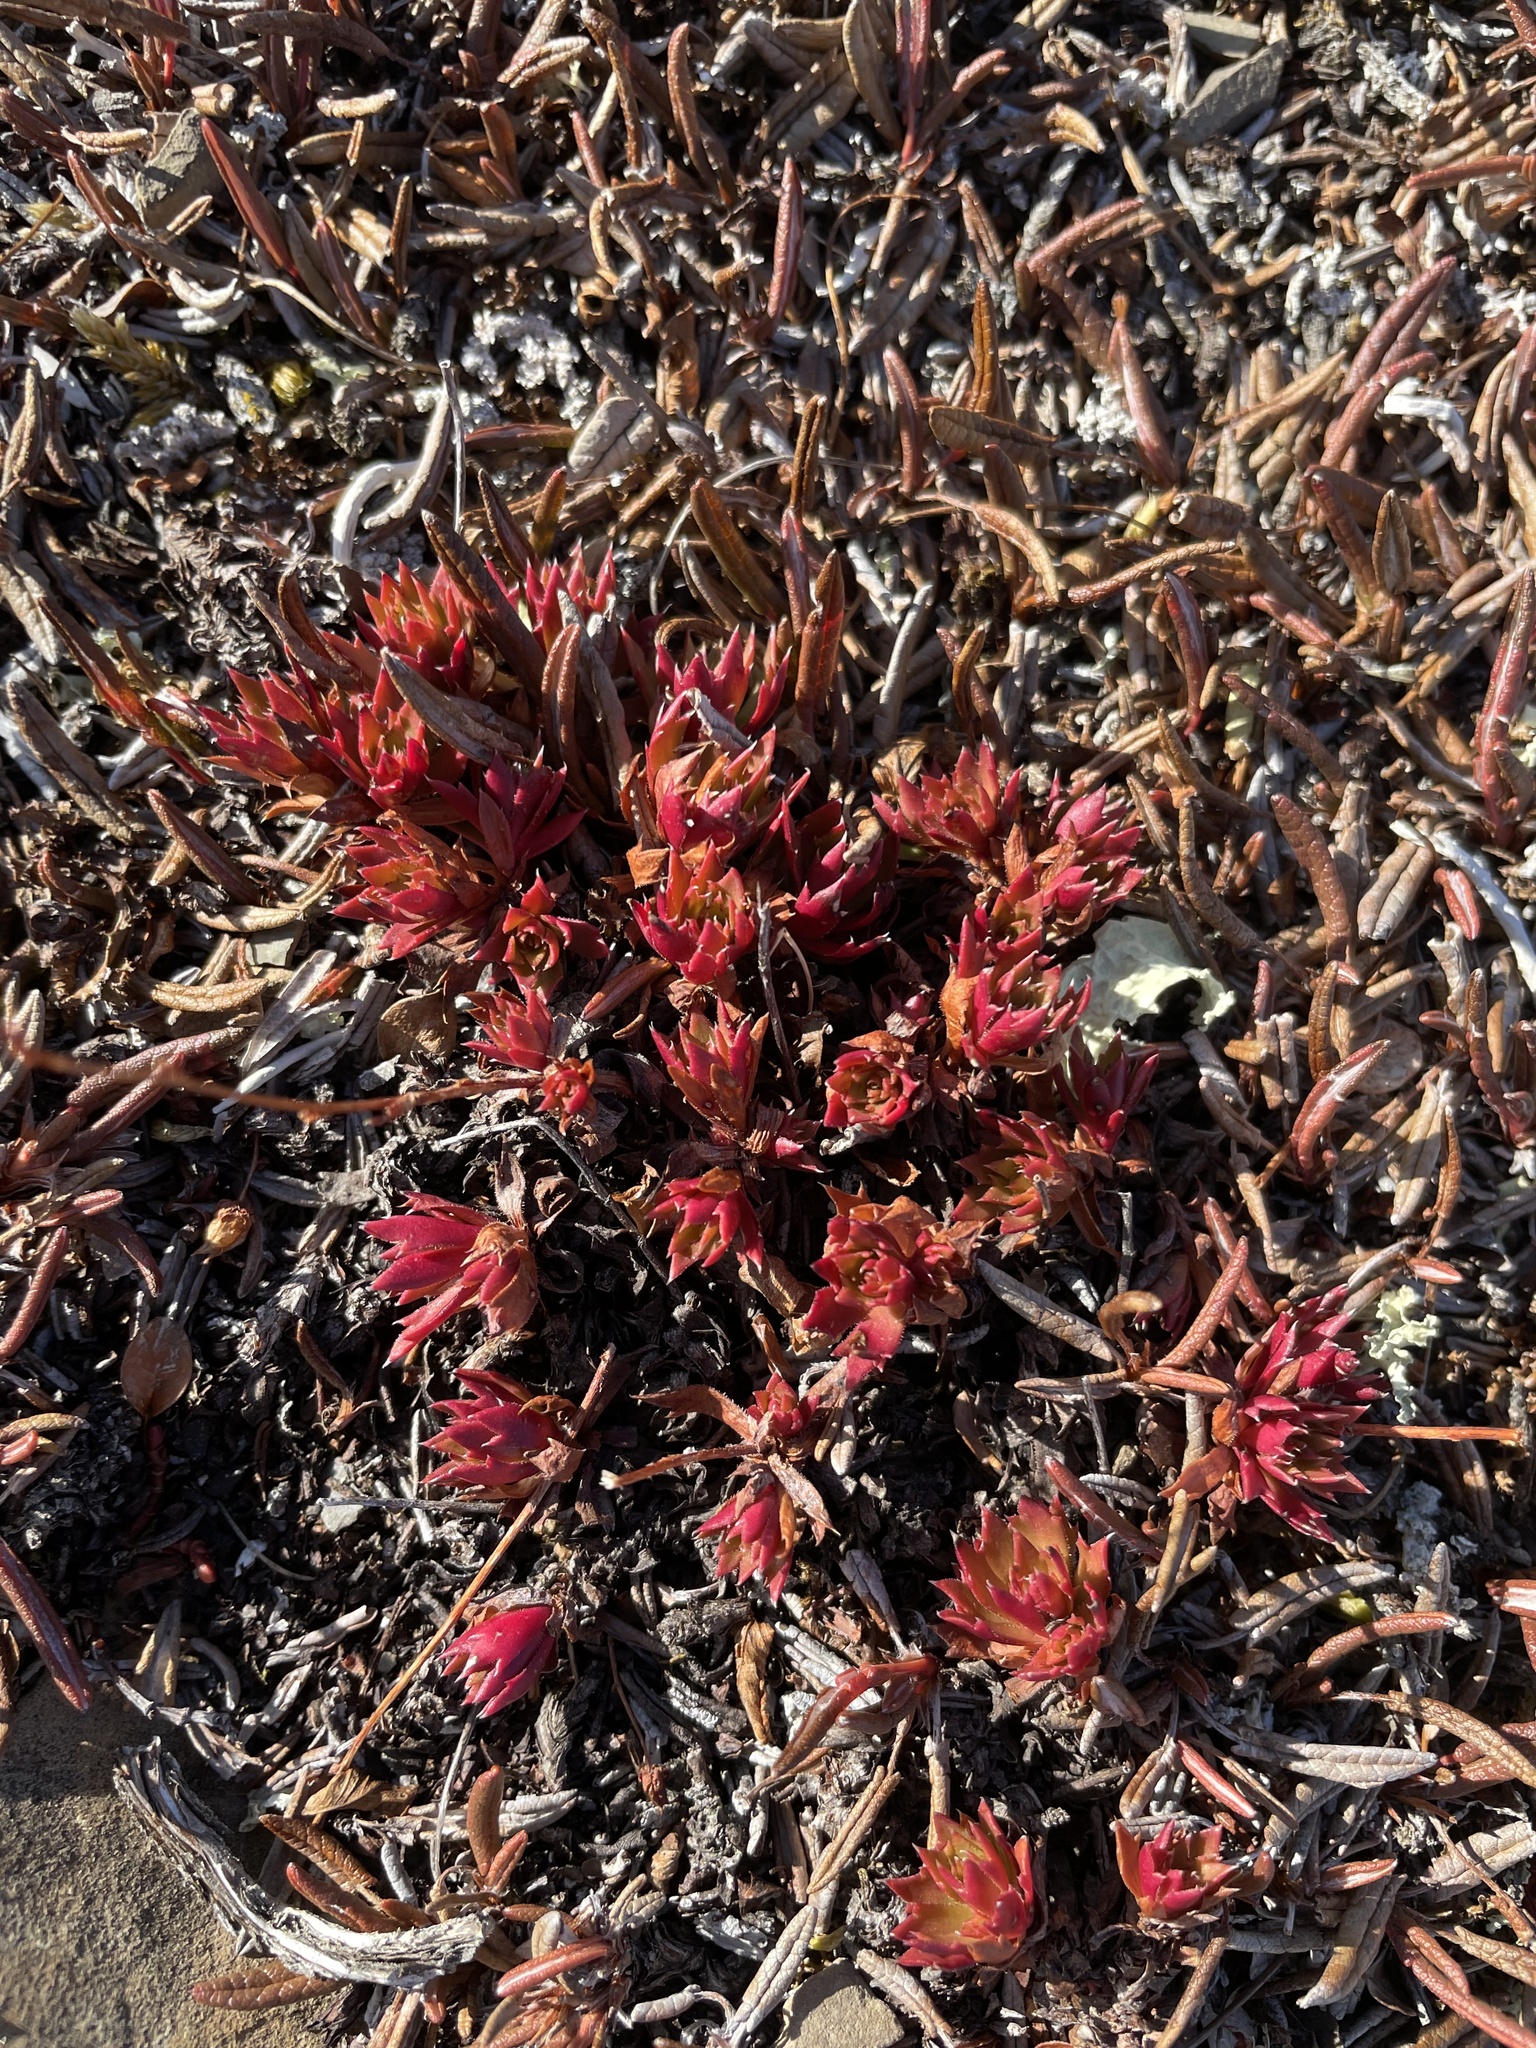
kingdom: Plantae
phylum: Tracheophyta
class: Magnoliopsida
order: Saxifragales
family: Saxifragaceae
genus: Saxifraga
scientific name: Saxifraga tricuspidata
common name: Prickly saxifrage
